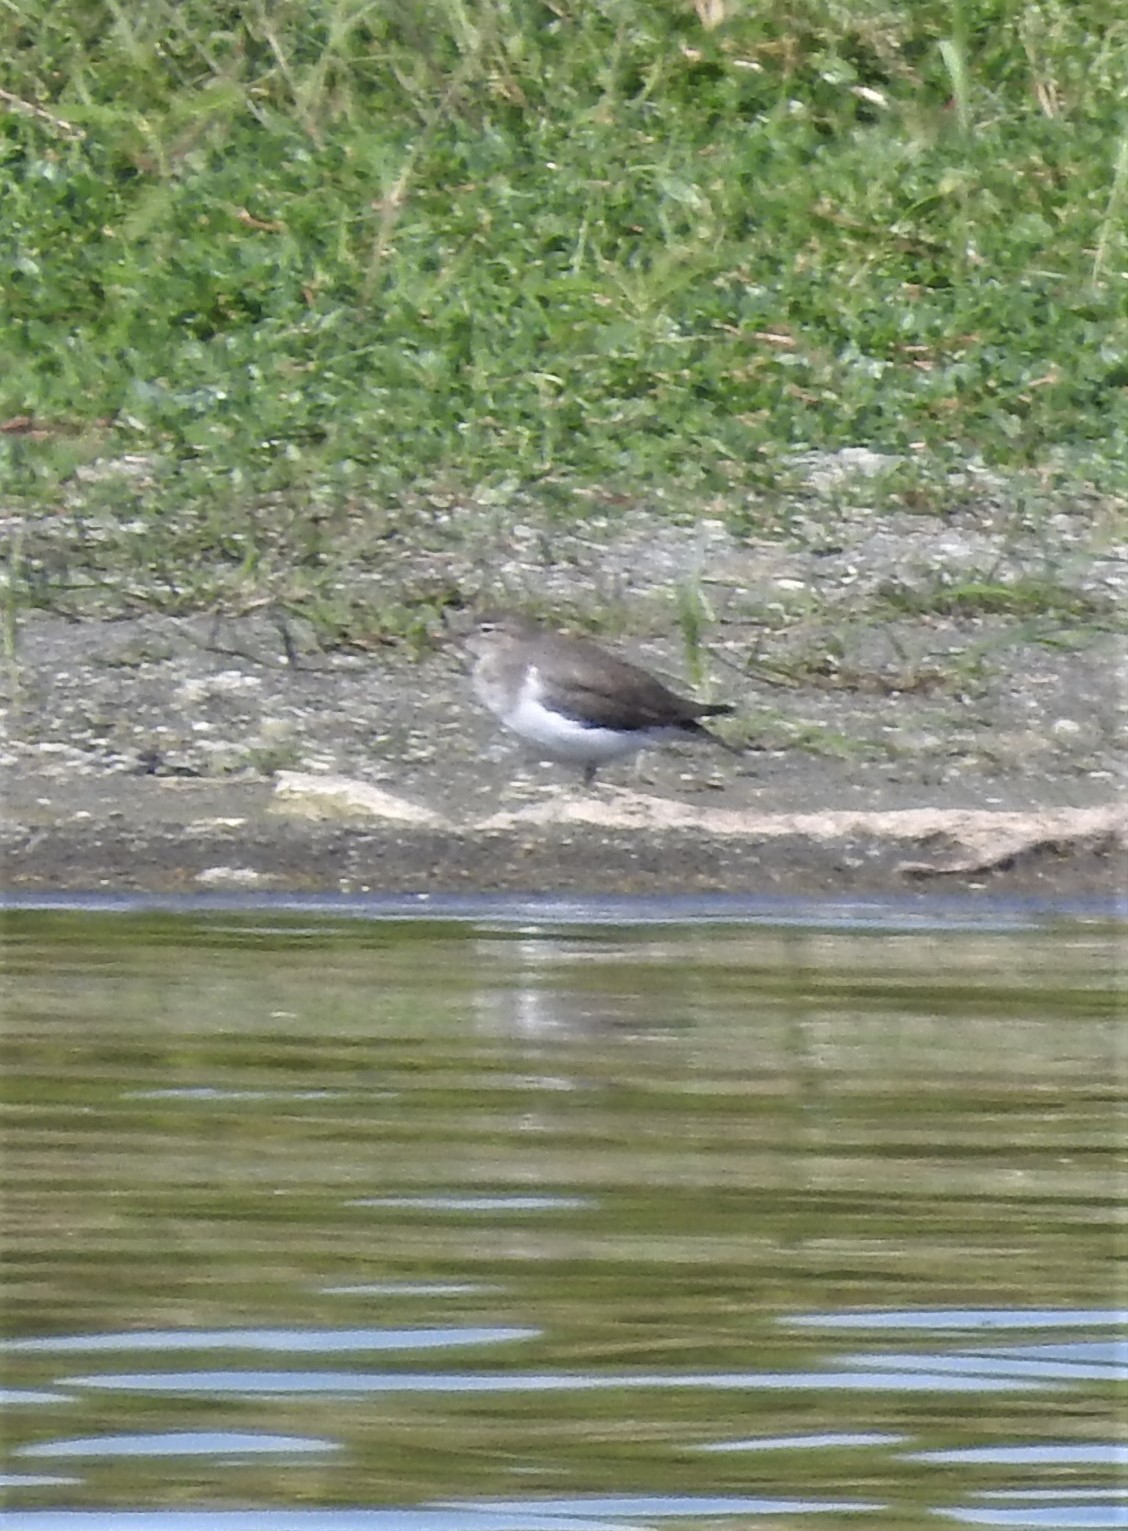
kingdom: Animalia
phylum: Chordata
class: Aves
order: Charadriiformes
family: Scolopacidae
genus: Actitis
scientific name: Actitis macularius
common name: Spotted sandpiper
